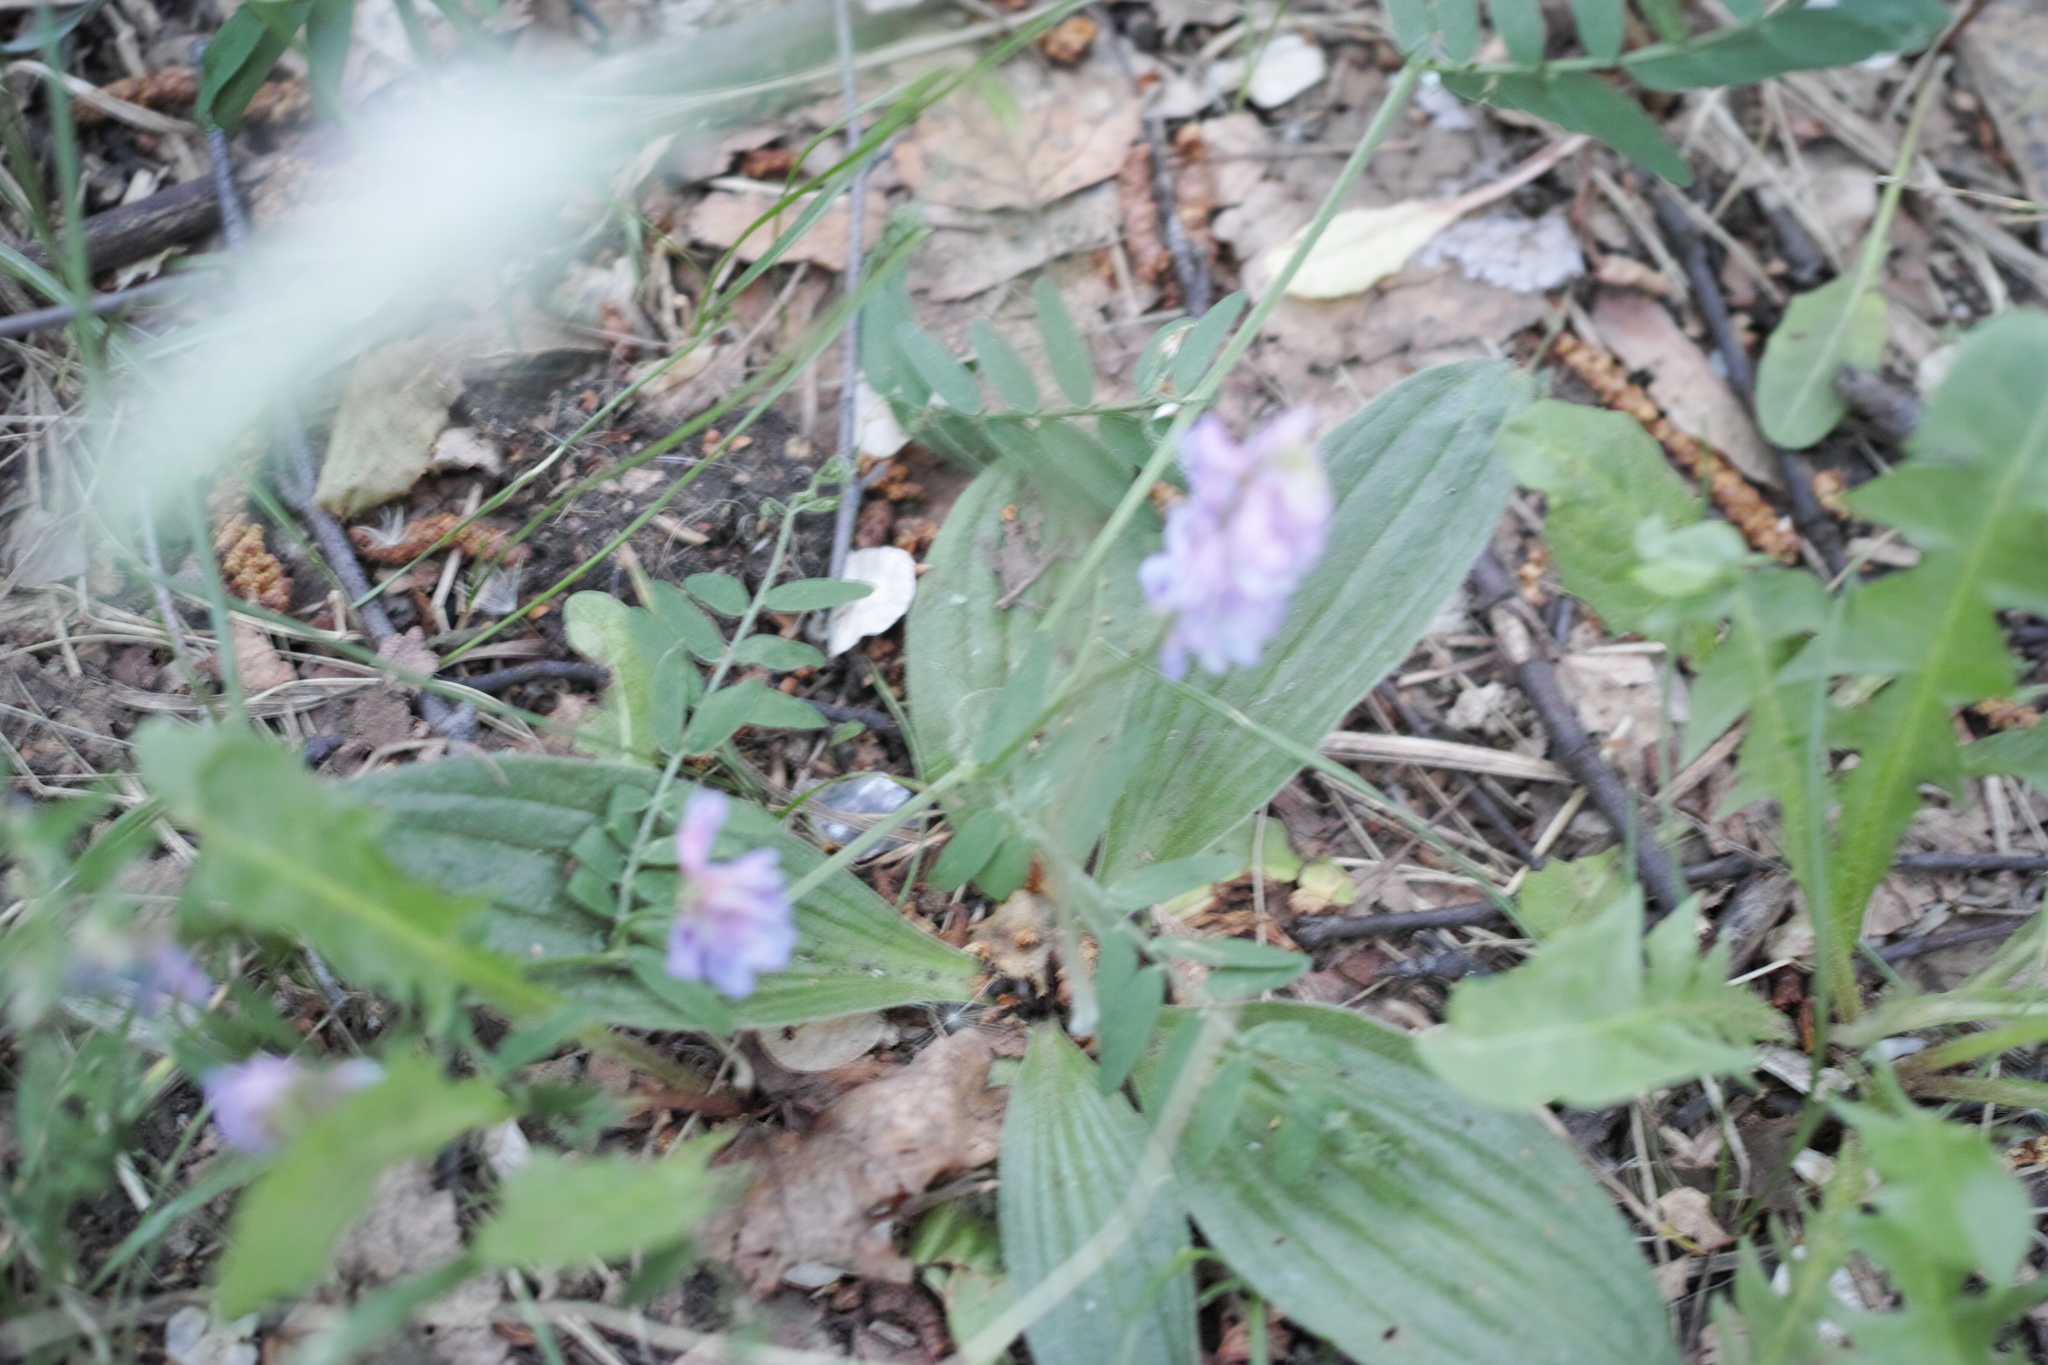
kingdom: Plantae
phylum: Tracheophyta
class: Magnoliopsida
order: Fabales
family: Fabaceae
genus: Vicia
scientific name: Vicia cracca
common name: Bird vetch
